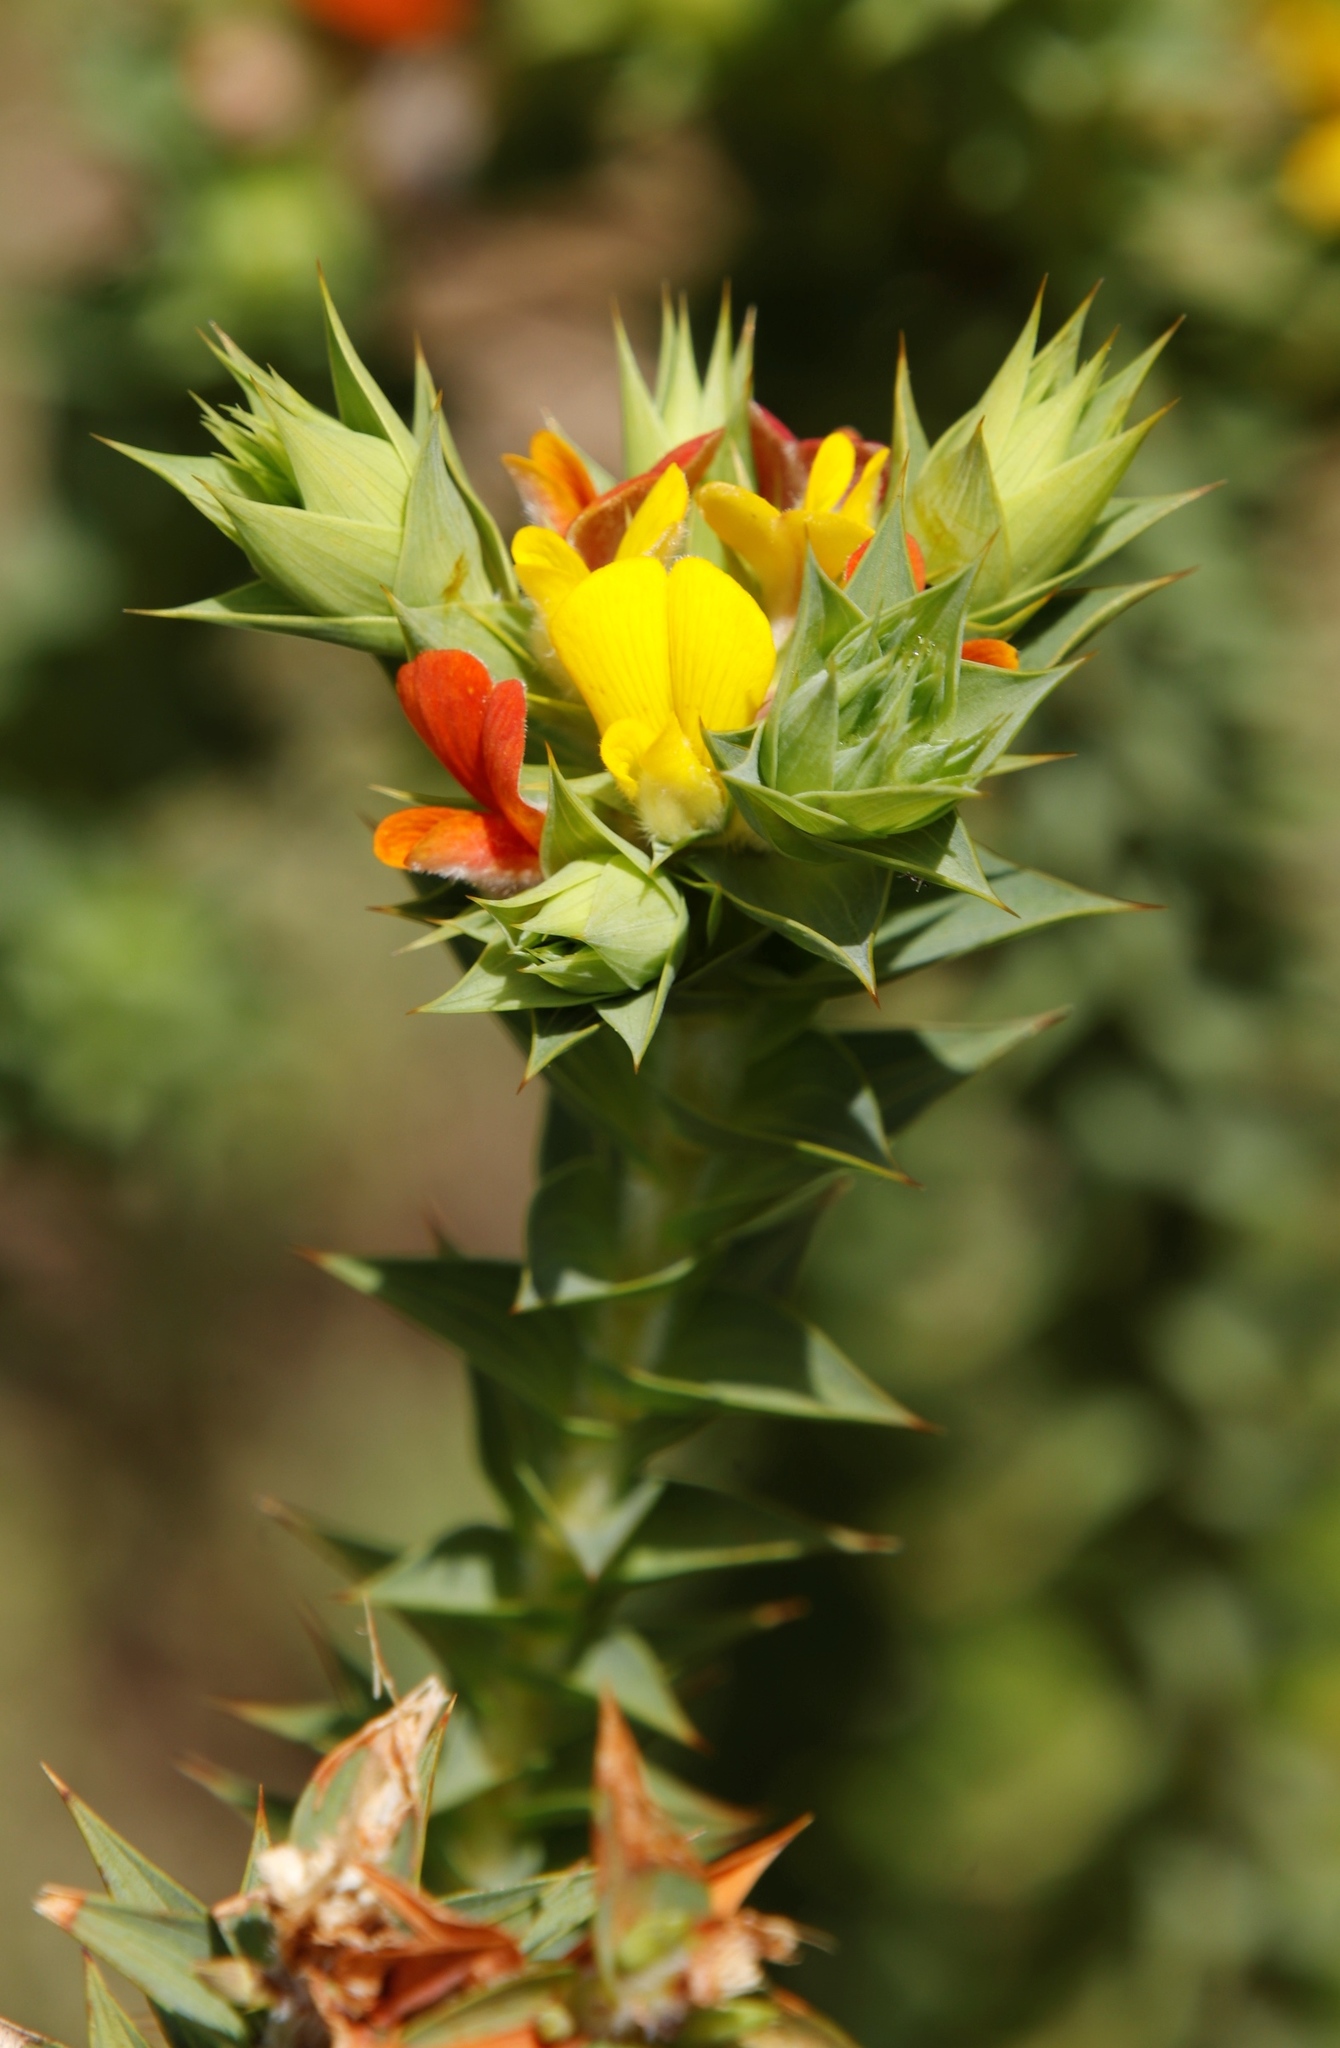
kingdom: Plantae
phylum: Tracheophyta
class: Magnoliopsida
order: Fabales
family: Fabaceae
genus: Aspalathus
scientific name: Aspalathus cordata
